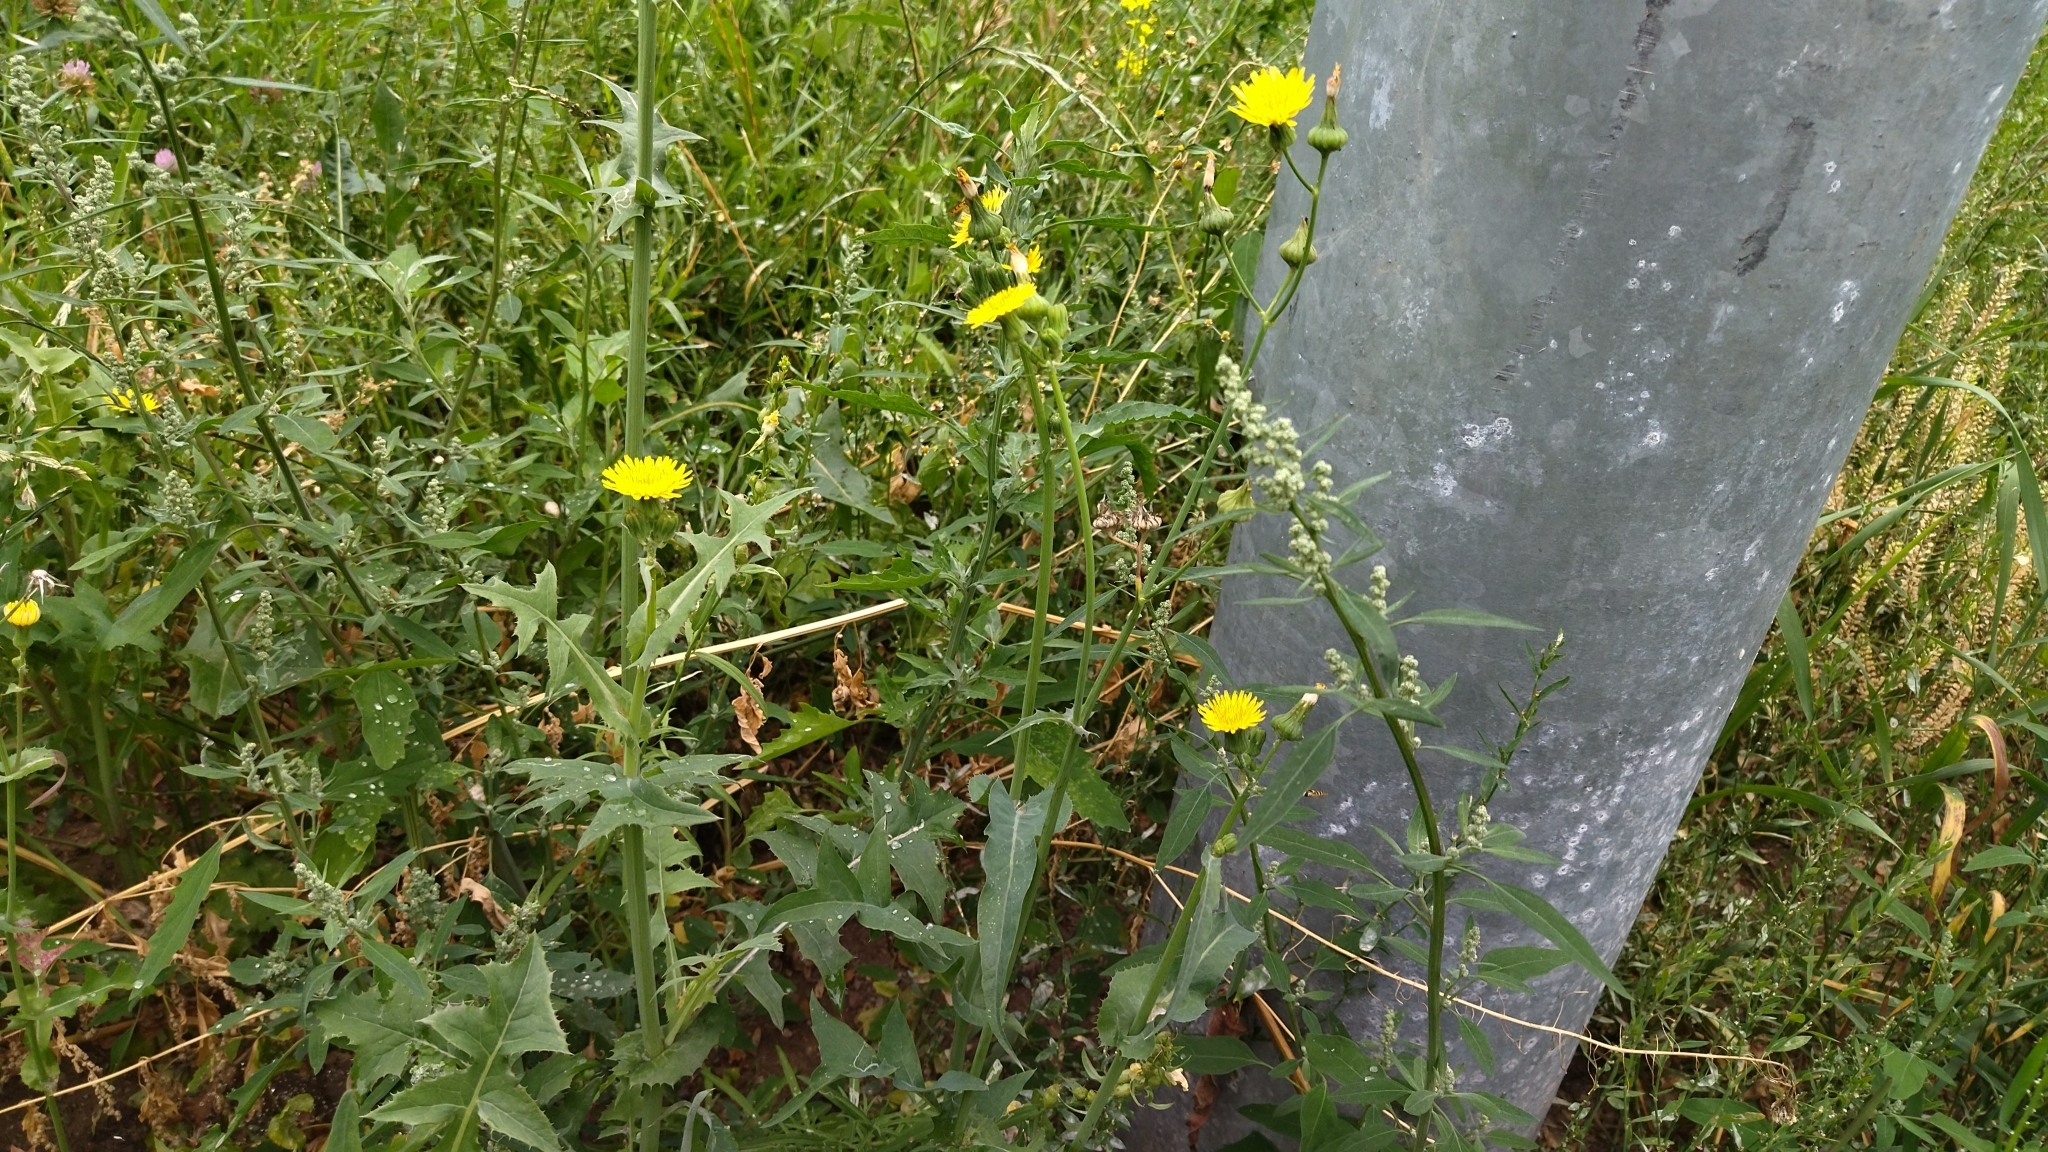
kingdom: Plantae
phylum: Tracheophyta
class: Magnoliopsida
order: Asterales
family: Asteraceae
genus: Sonchus
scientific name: Sonchus oleraceus
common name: Common sowthistle
